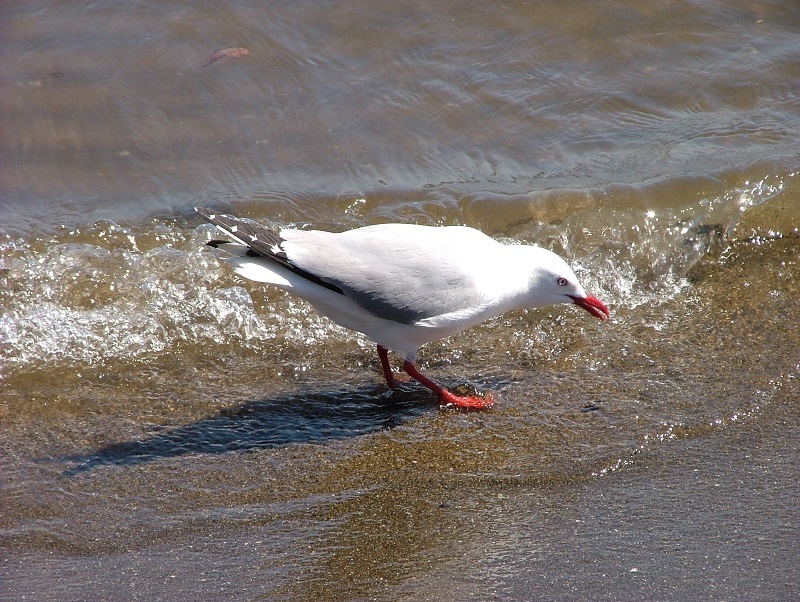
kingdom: Animalia
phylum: Chordata
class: Aves
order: Charadriiformes
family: Laridae
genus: Chroicocephalus
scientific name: Chroicocephalus novaehollandiae
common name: Silver gull
